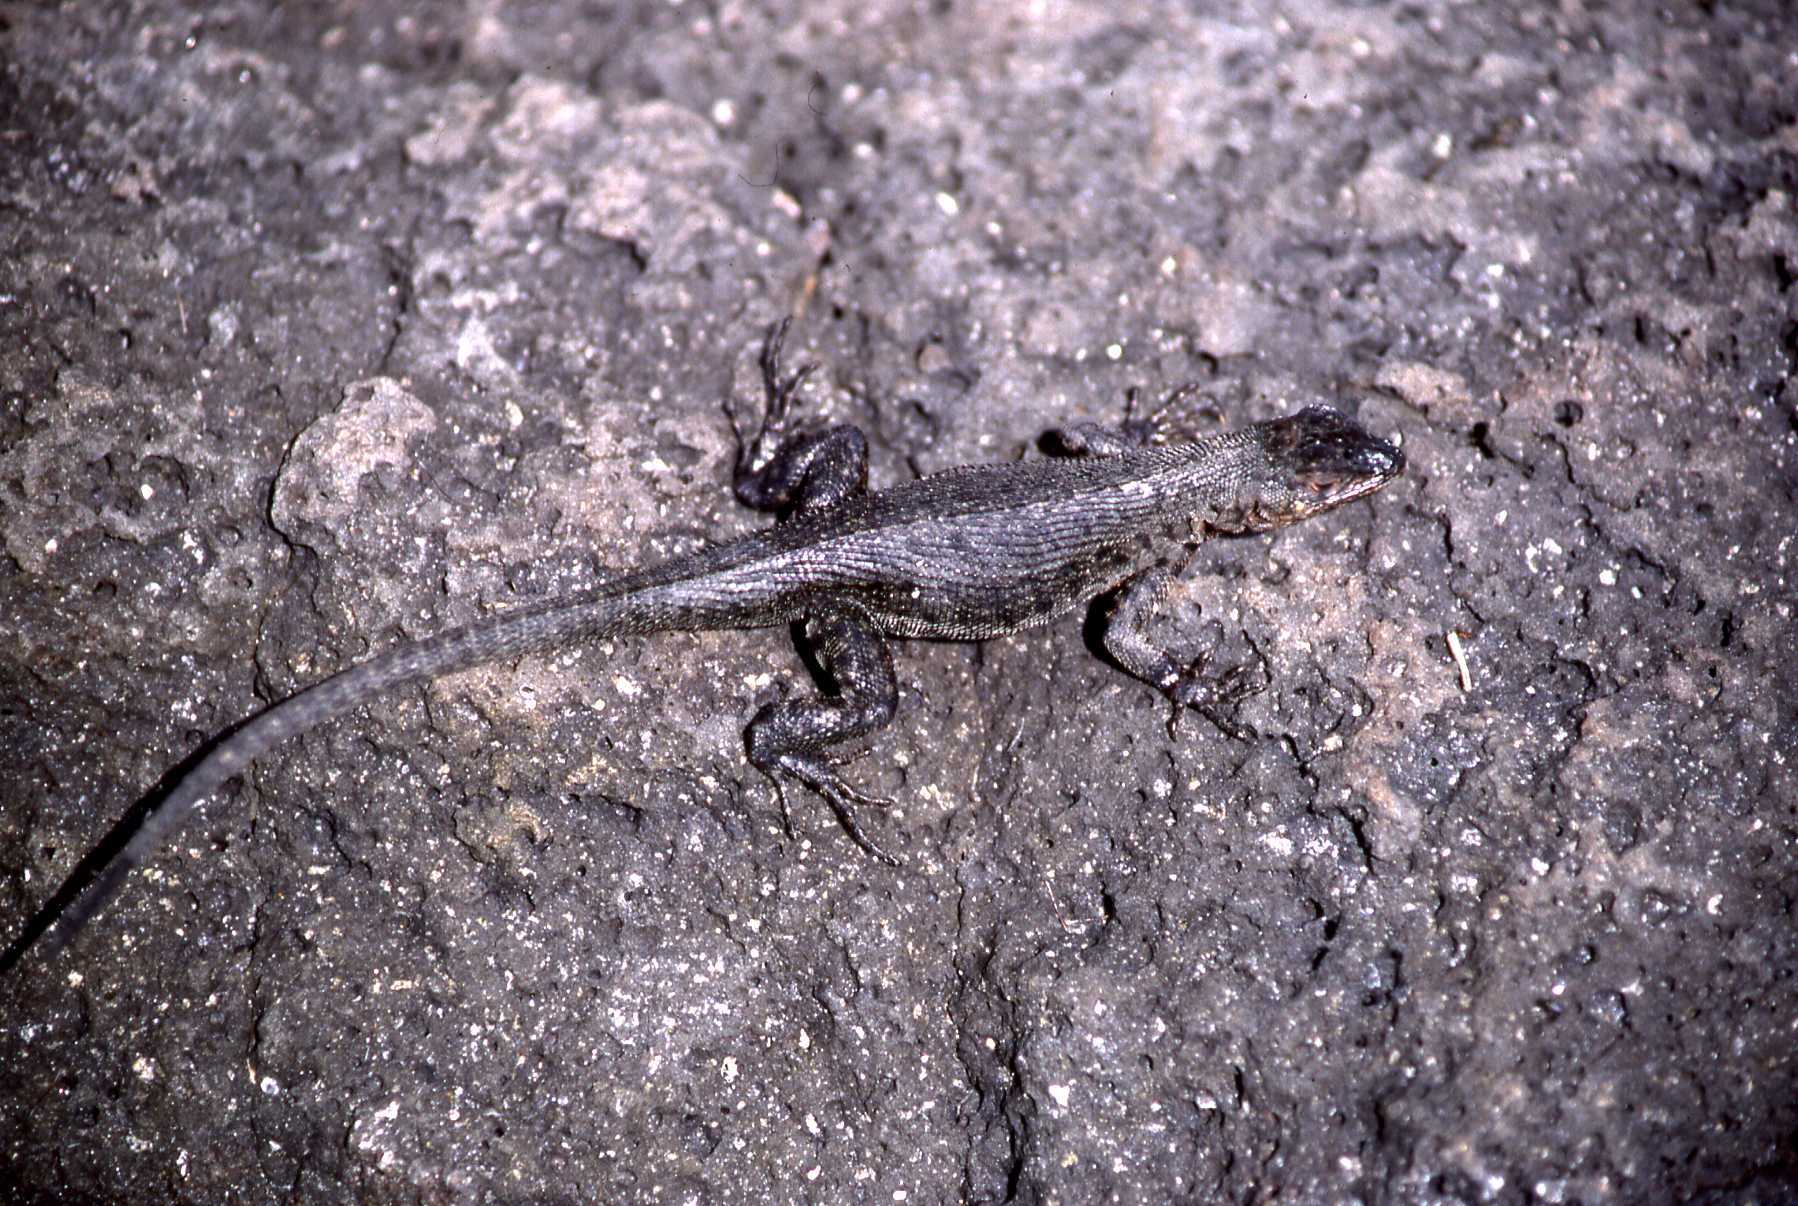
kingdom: Animalia
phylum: Chordata
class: Squamata
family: Tropiduridae
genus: Microlophus
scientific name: Microlophus albemarlensis
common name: Galapagos lava lizard
